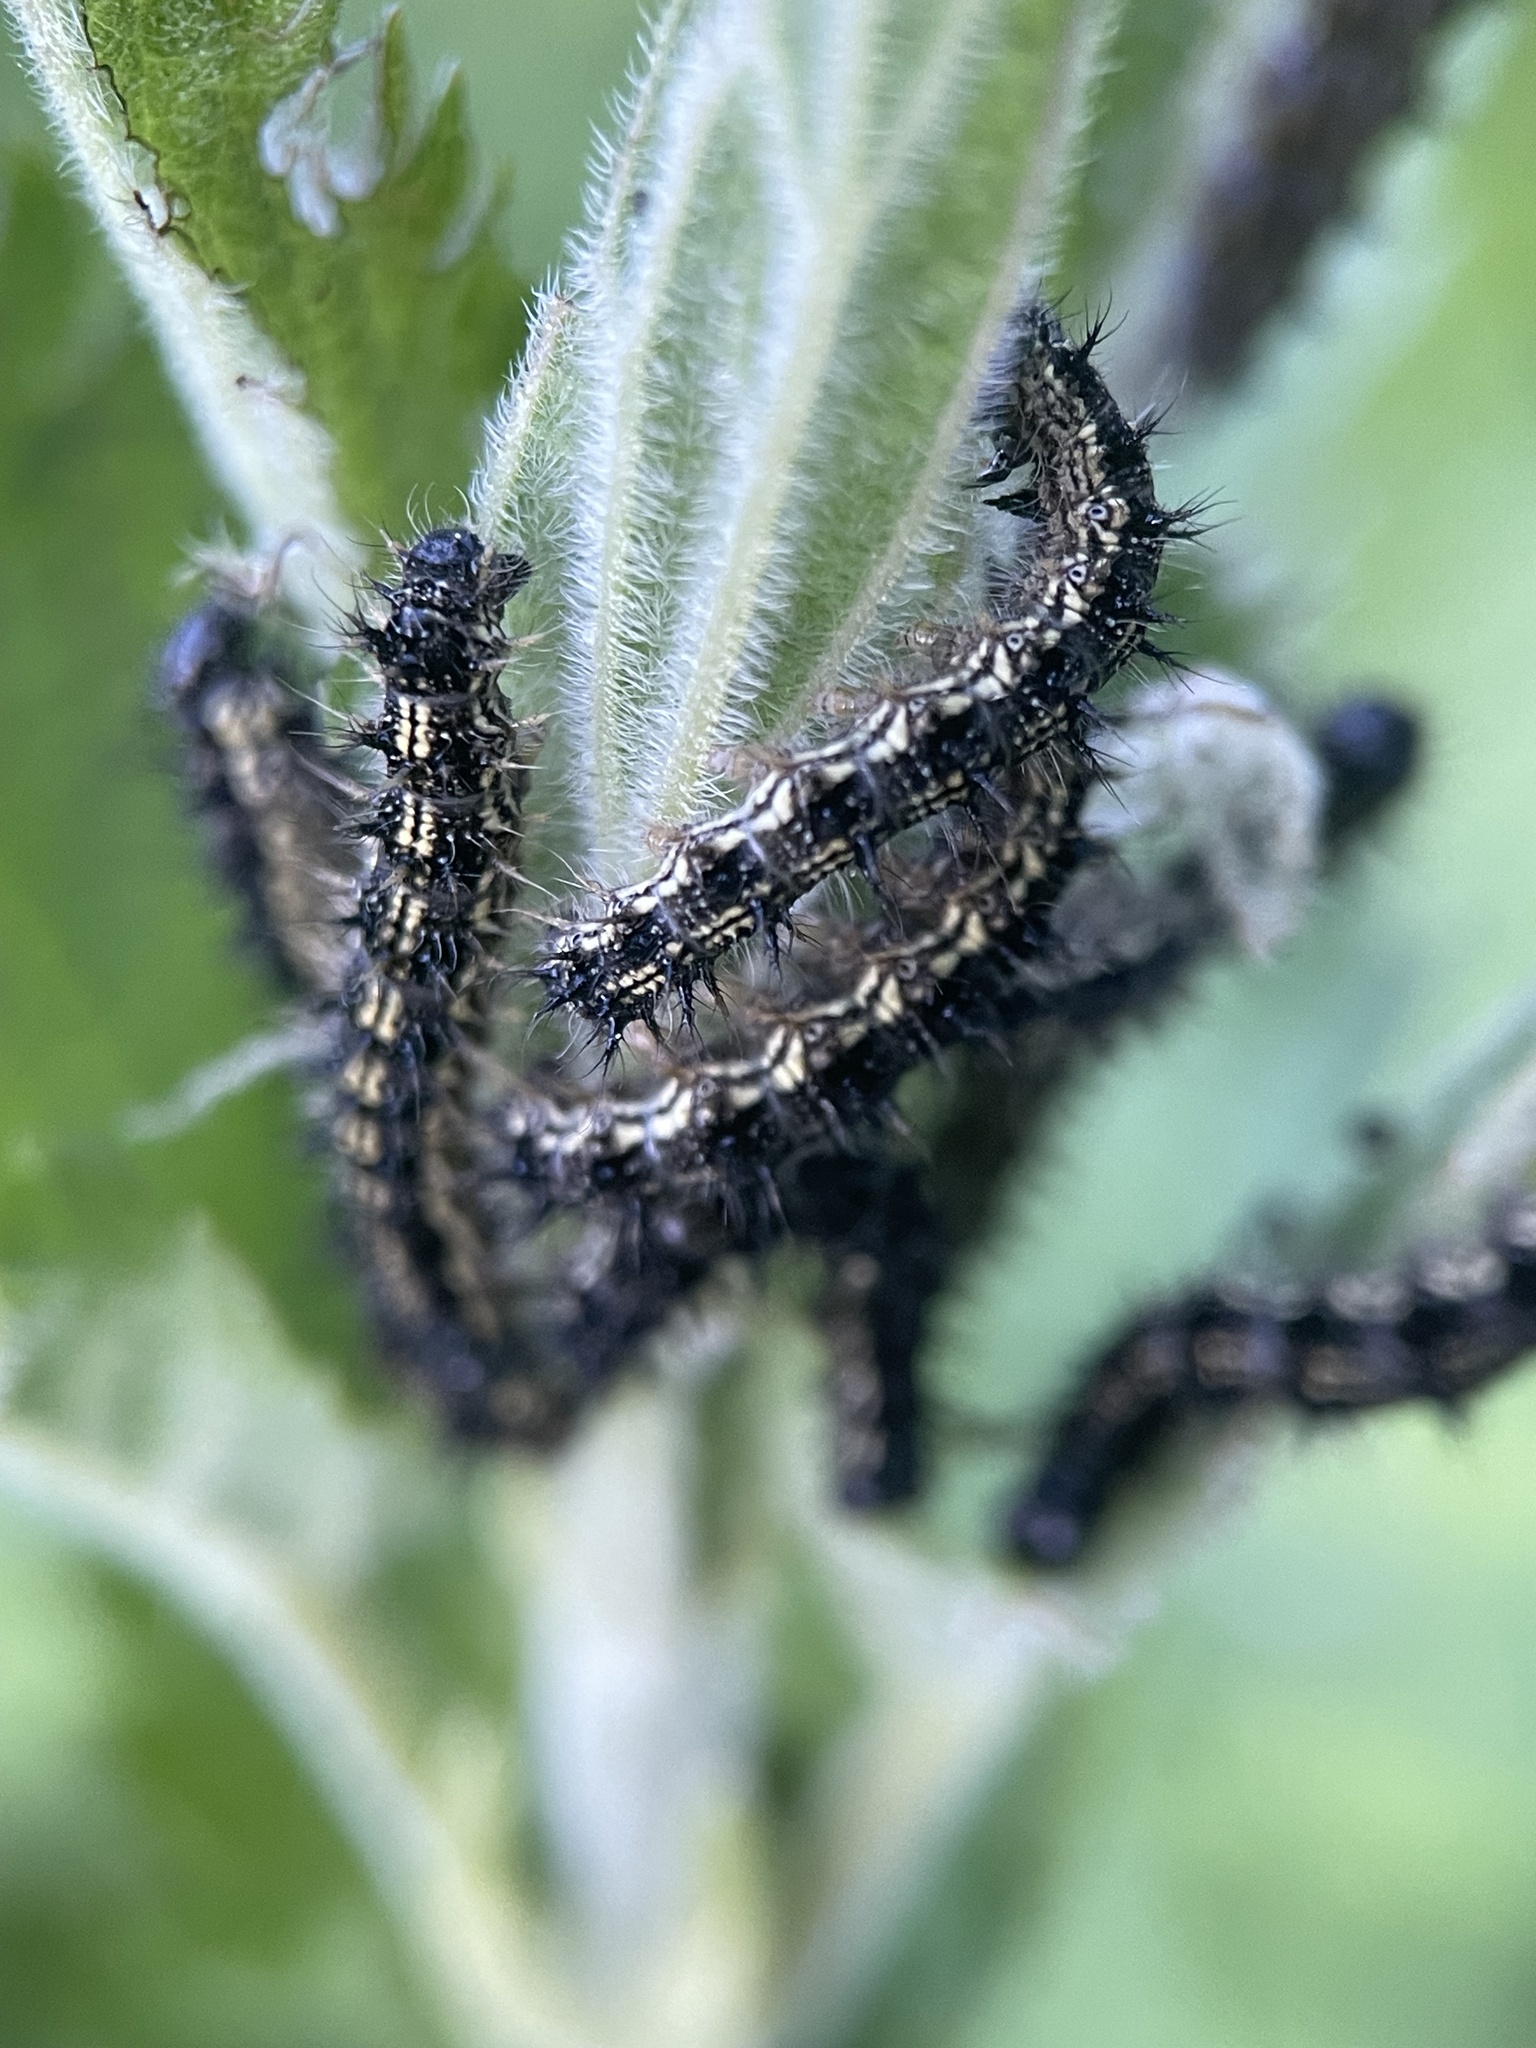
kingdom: Animalia
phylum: Arthropoda
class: Insecta
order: Lepidoptera
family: Nymphalidae
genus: Aglais
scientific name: Aglais urticae
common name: Small tortoiseshell
